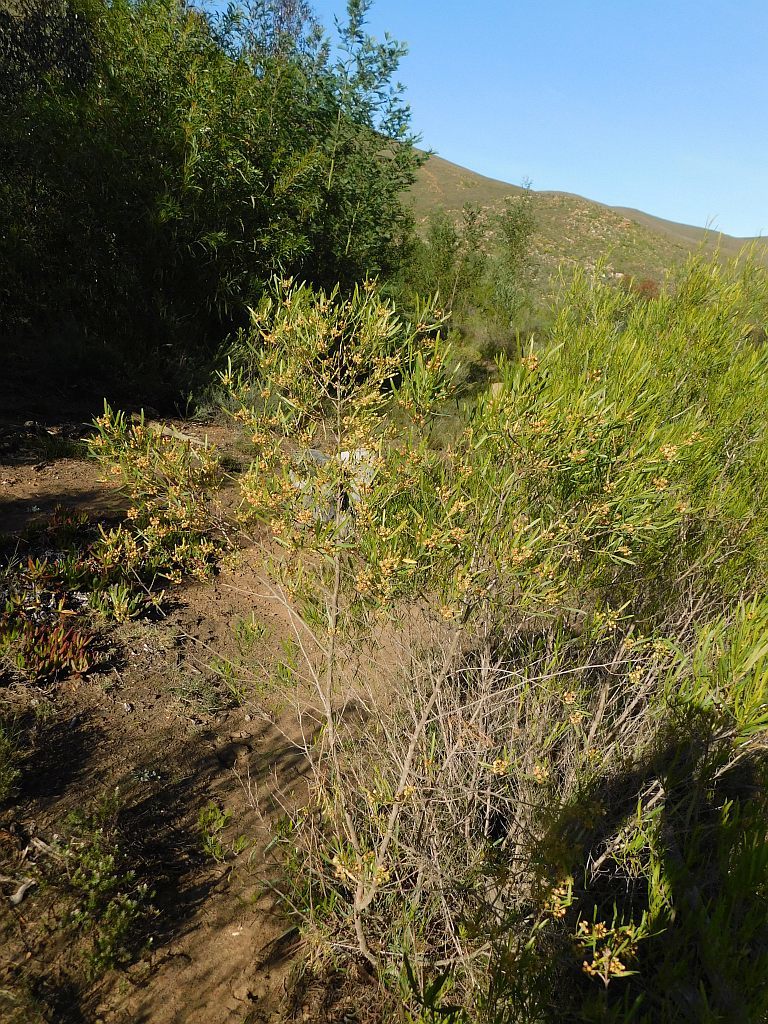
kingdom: Plantae
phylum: Tracheophyta
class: Magnoliopsida
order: Sapindales
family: Sapindaceae
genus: Dodonaea
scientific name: Dodonaea viscosa
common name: Hopbush
